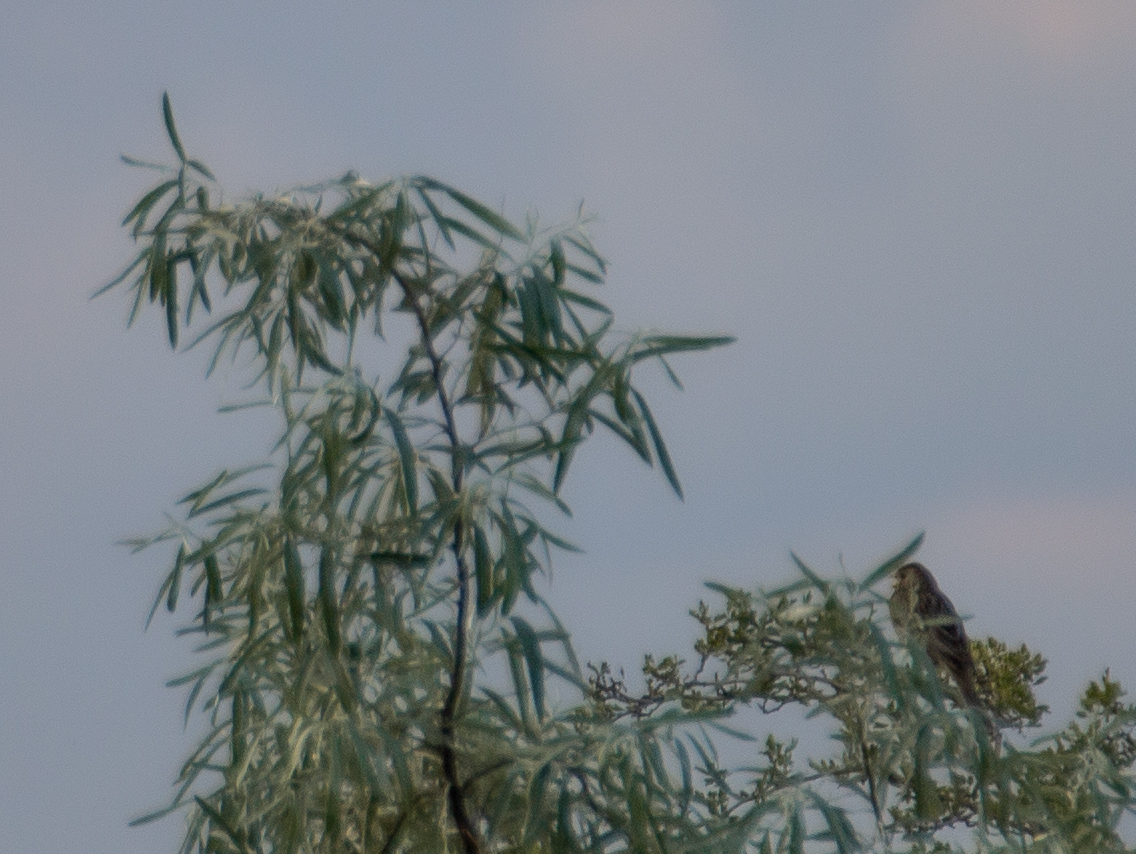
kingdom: Animalia
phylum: Chordata
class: Aves
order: Passeriformes
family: Emberizidae
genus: Emberiza
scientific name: Emberiza calandra
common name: Corn bunting
